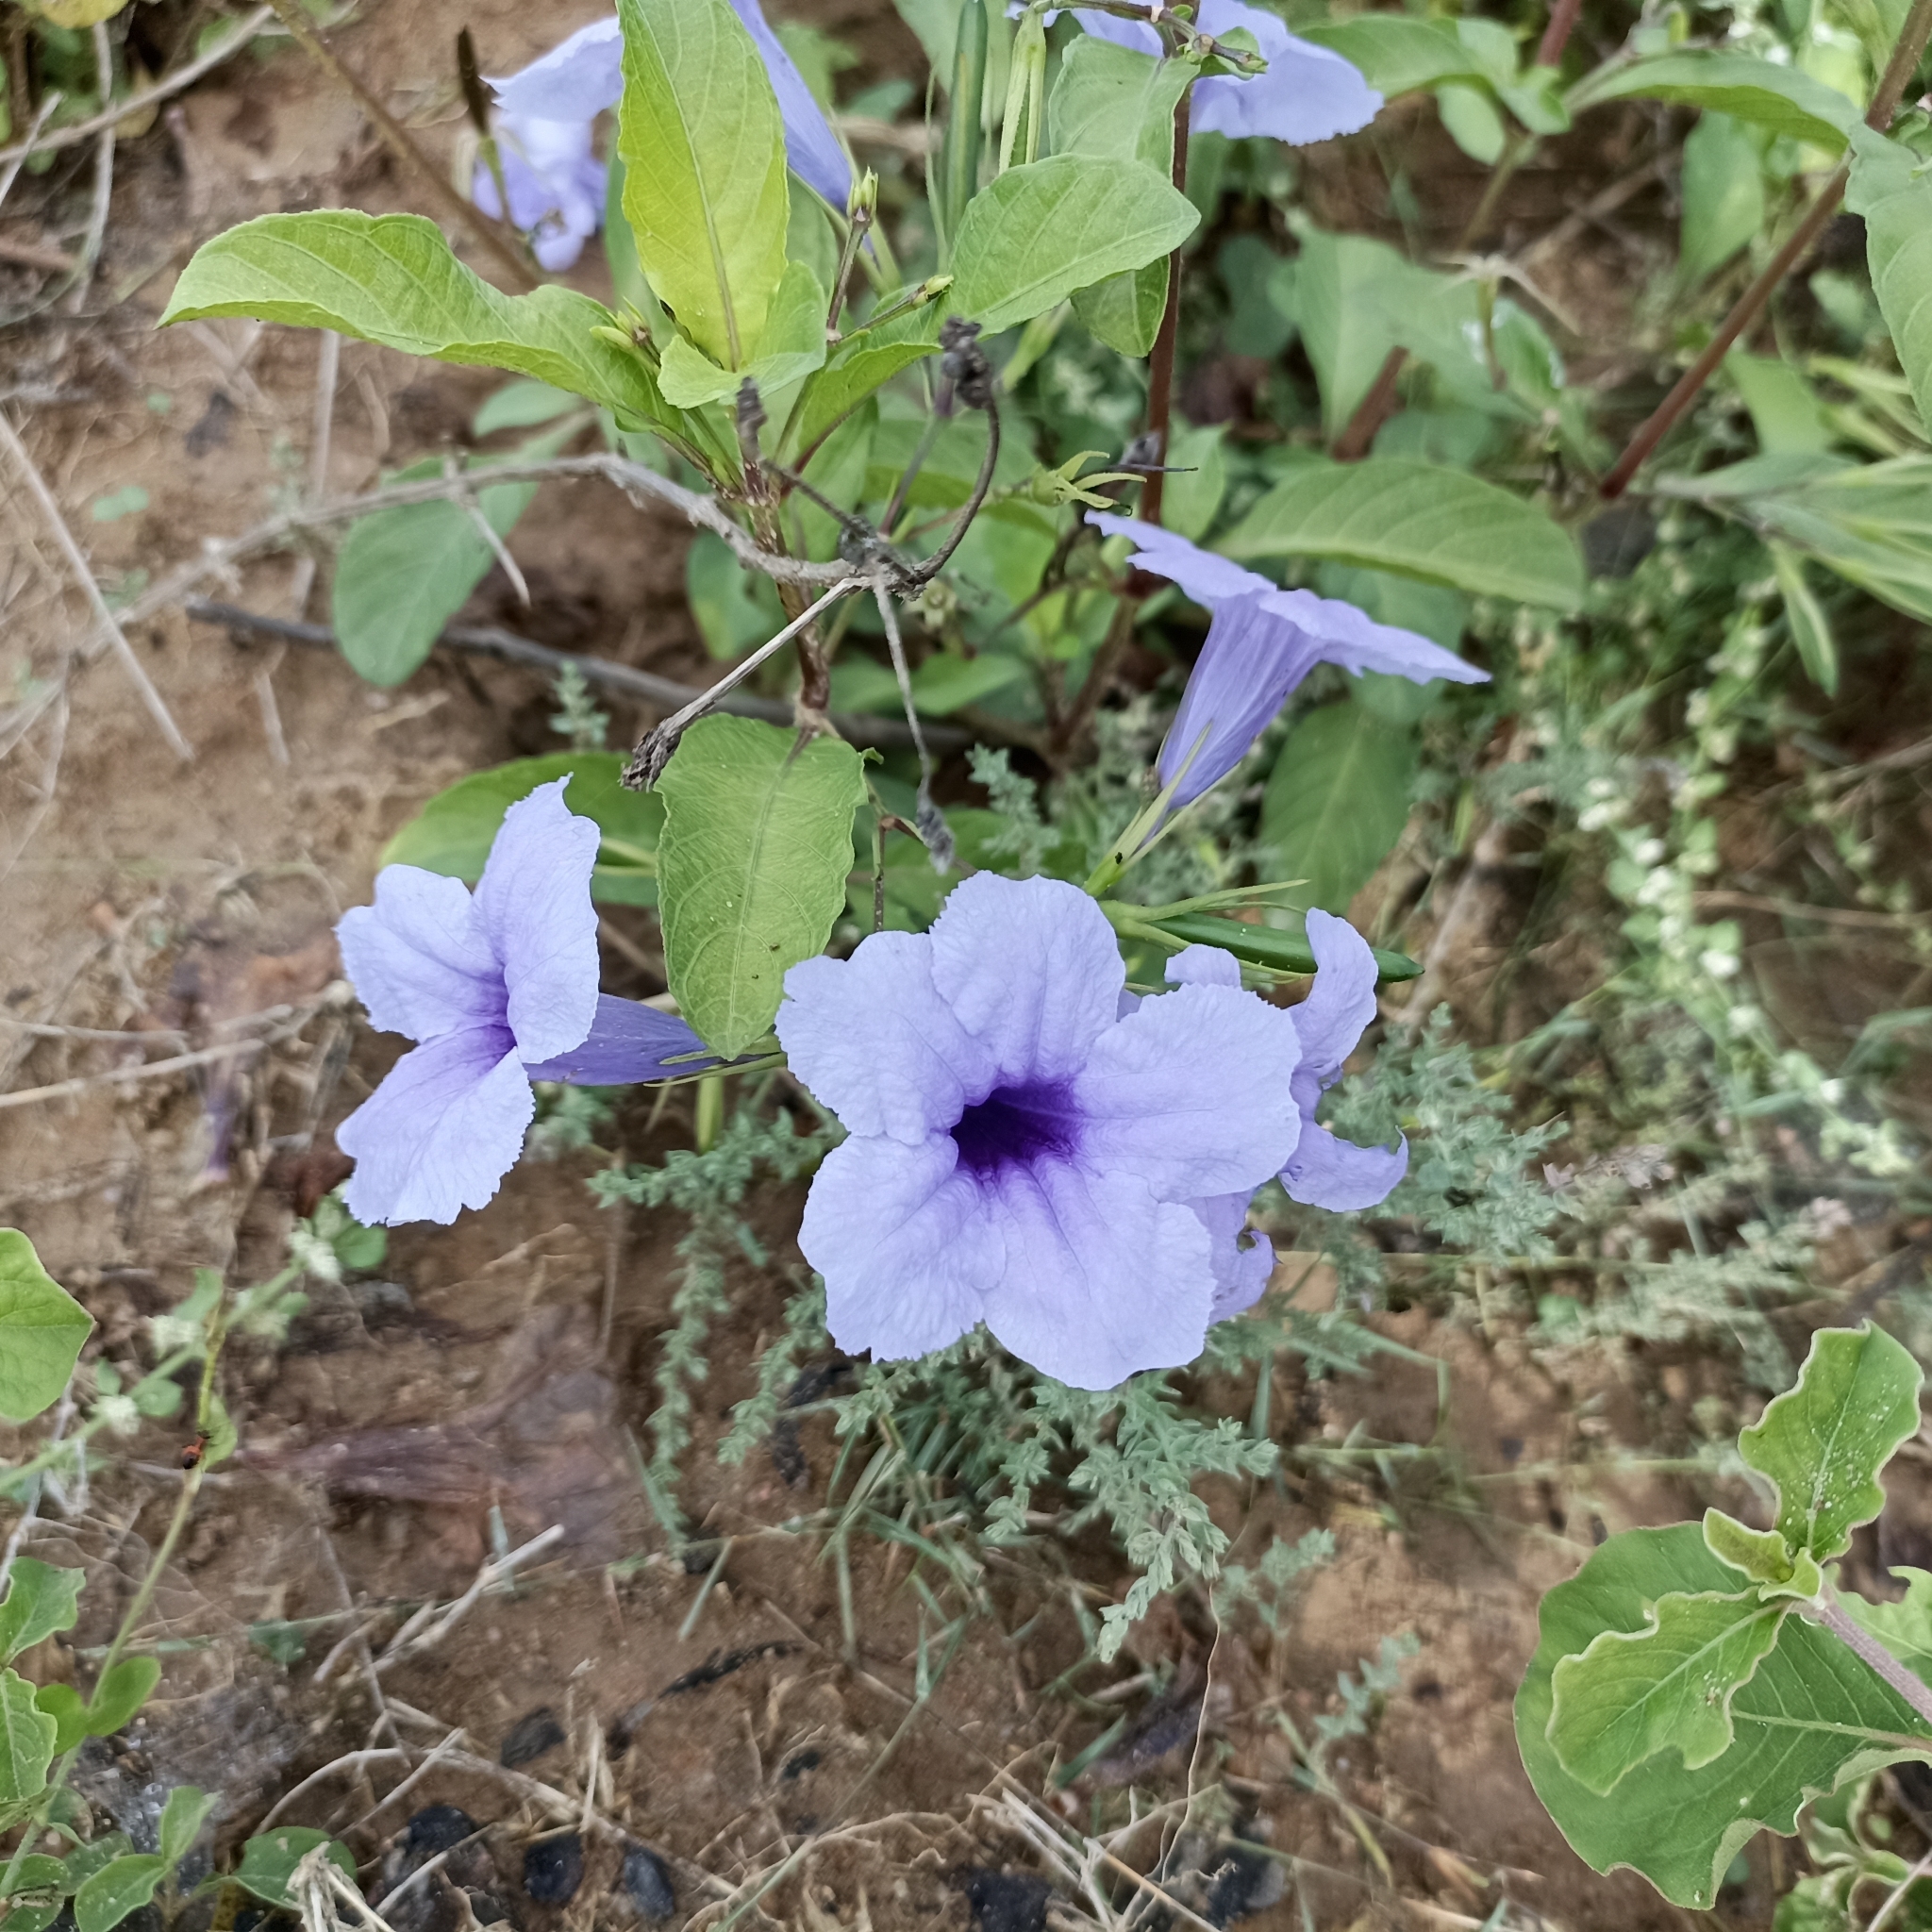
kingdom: Plantae
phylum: Tracheophyta
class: Magnoliopsida
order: Lamiales
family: Acanthaceae
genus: Ruellia
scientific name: Ruellia tuberosa
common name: Devil's bit
